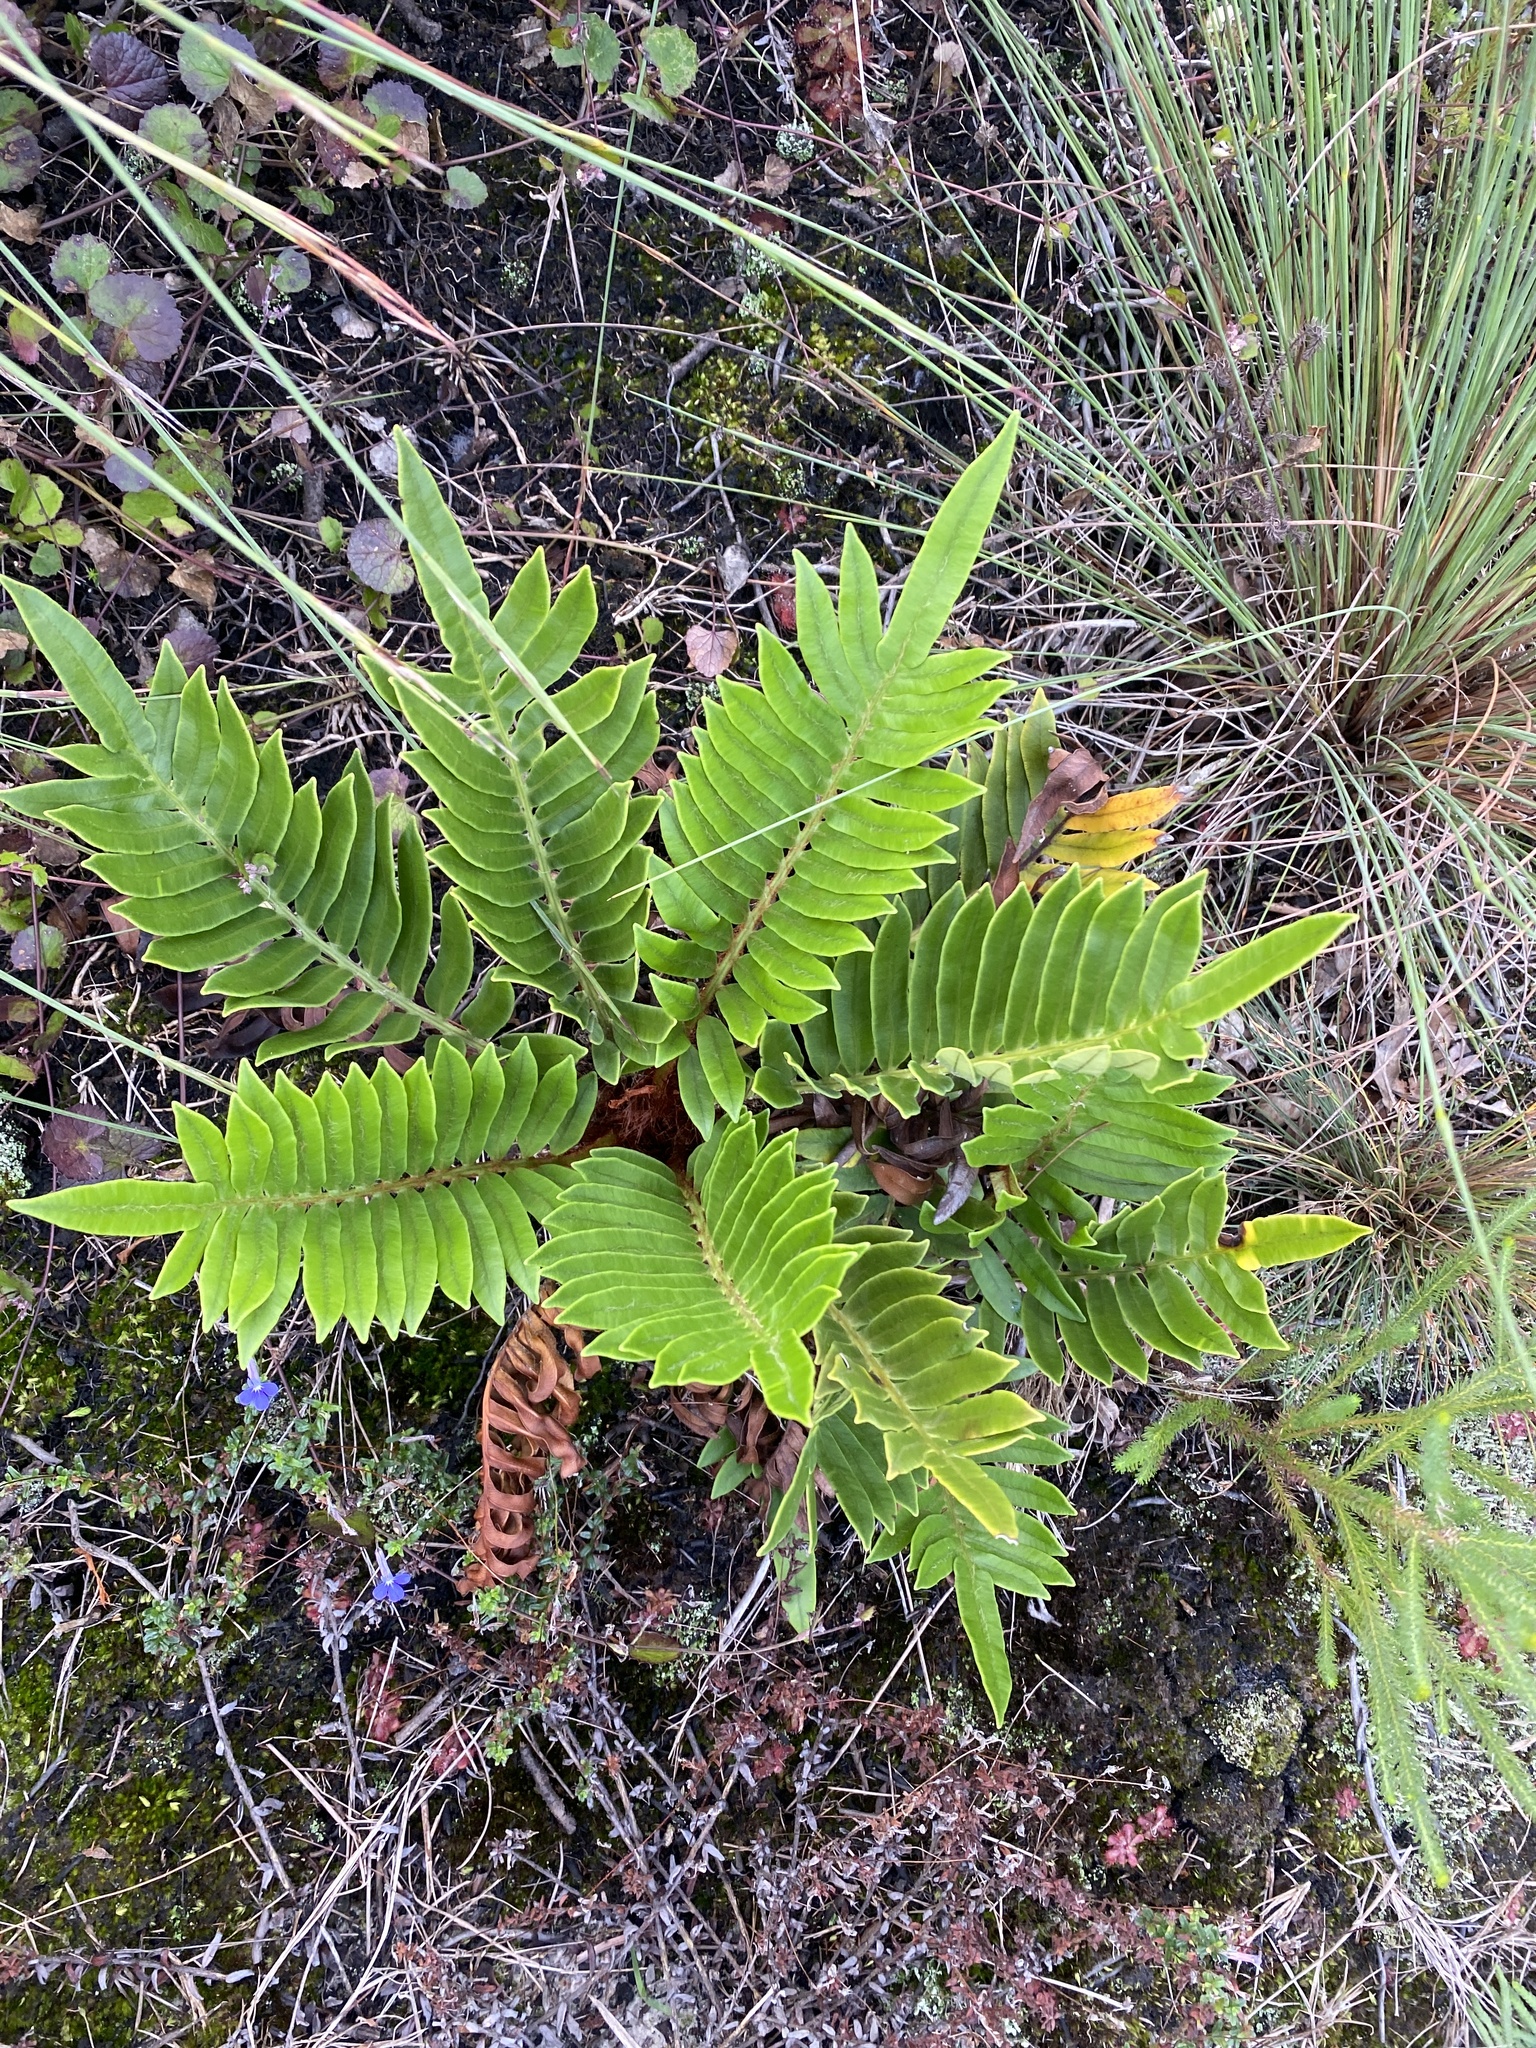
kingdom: Plantae
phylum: Tracheophyta
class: Polypodiopsida
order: Polypodiales
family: Blechnaceae
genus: Lomariocycas
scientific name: Lomariocycas tabularis
